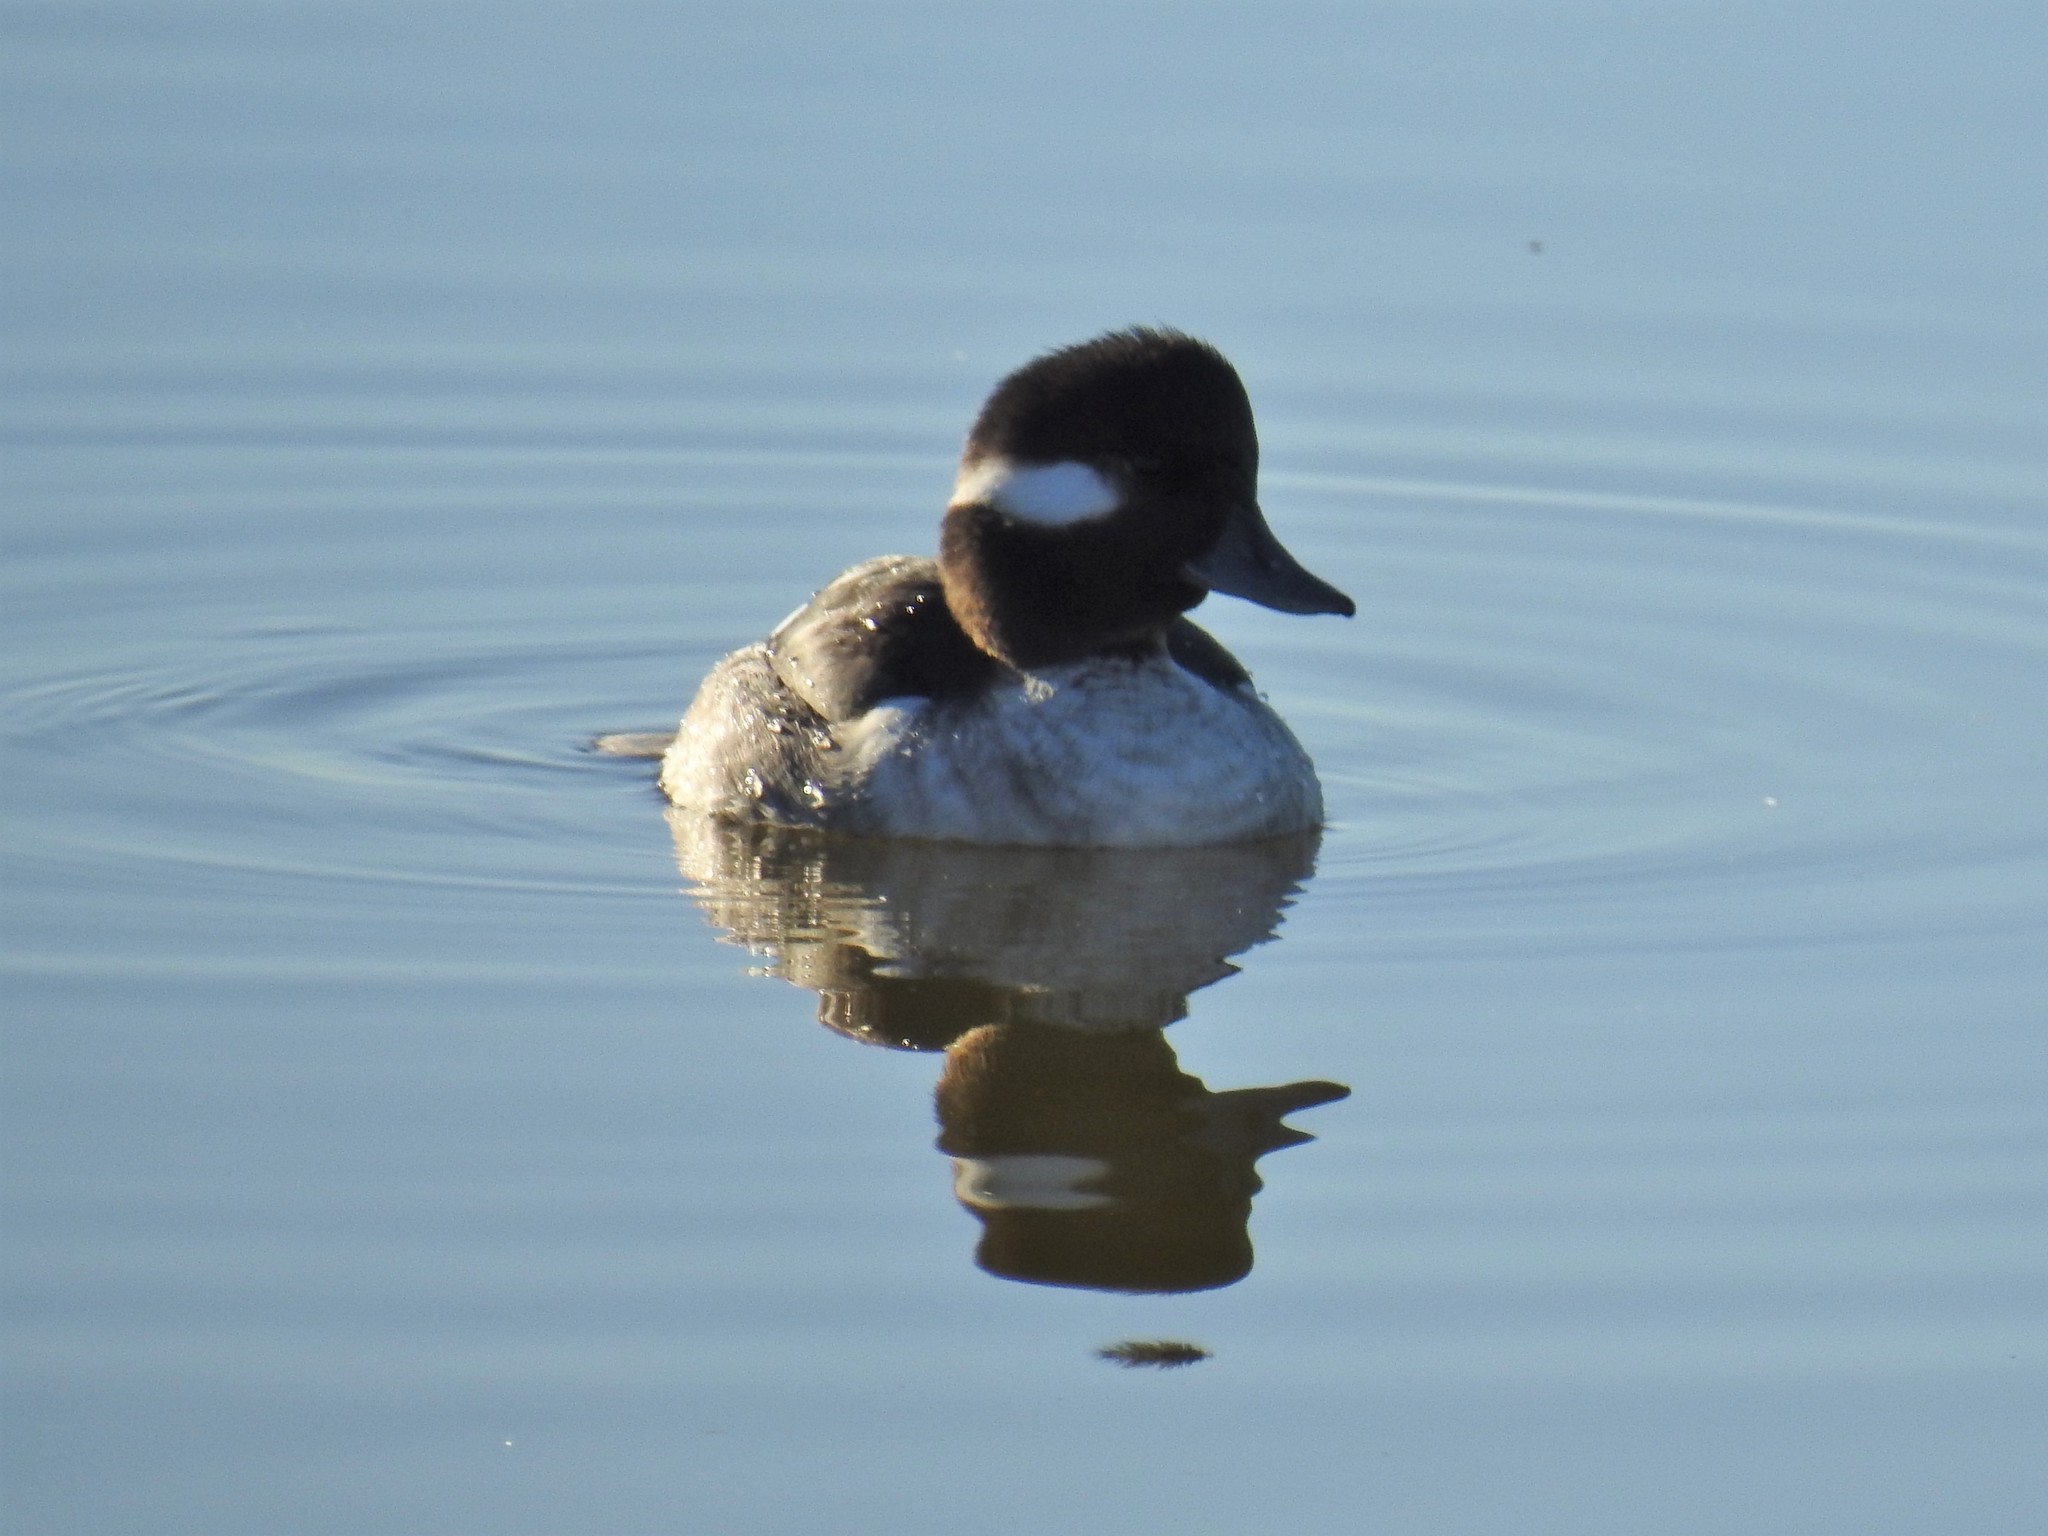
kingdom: Animalia
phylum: Chordata
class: Aves
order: Anseriformes
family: Anatidae
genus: Bucephala
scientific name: Bucephala albeola
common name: Bufflehead
